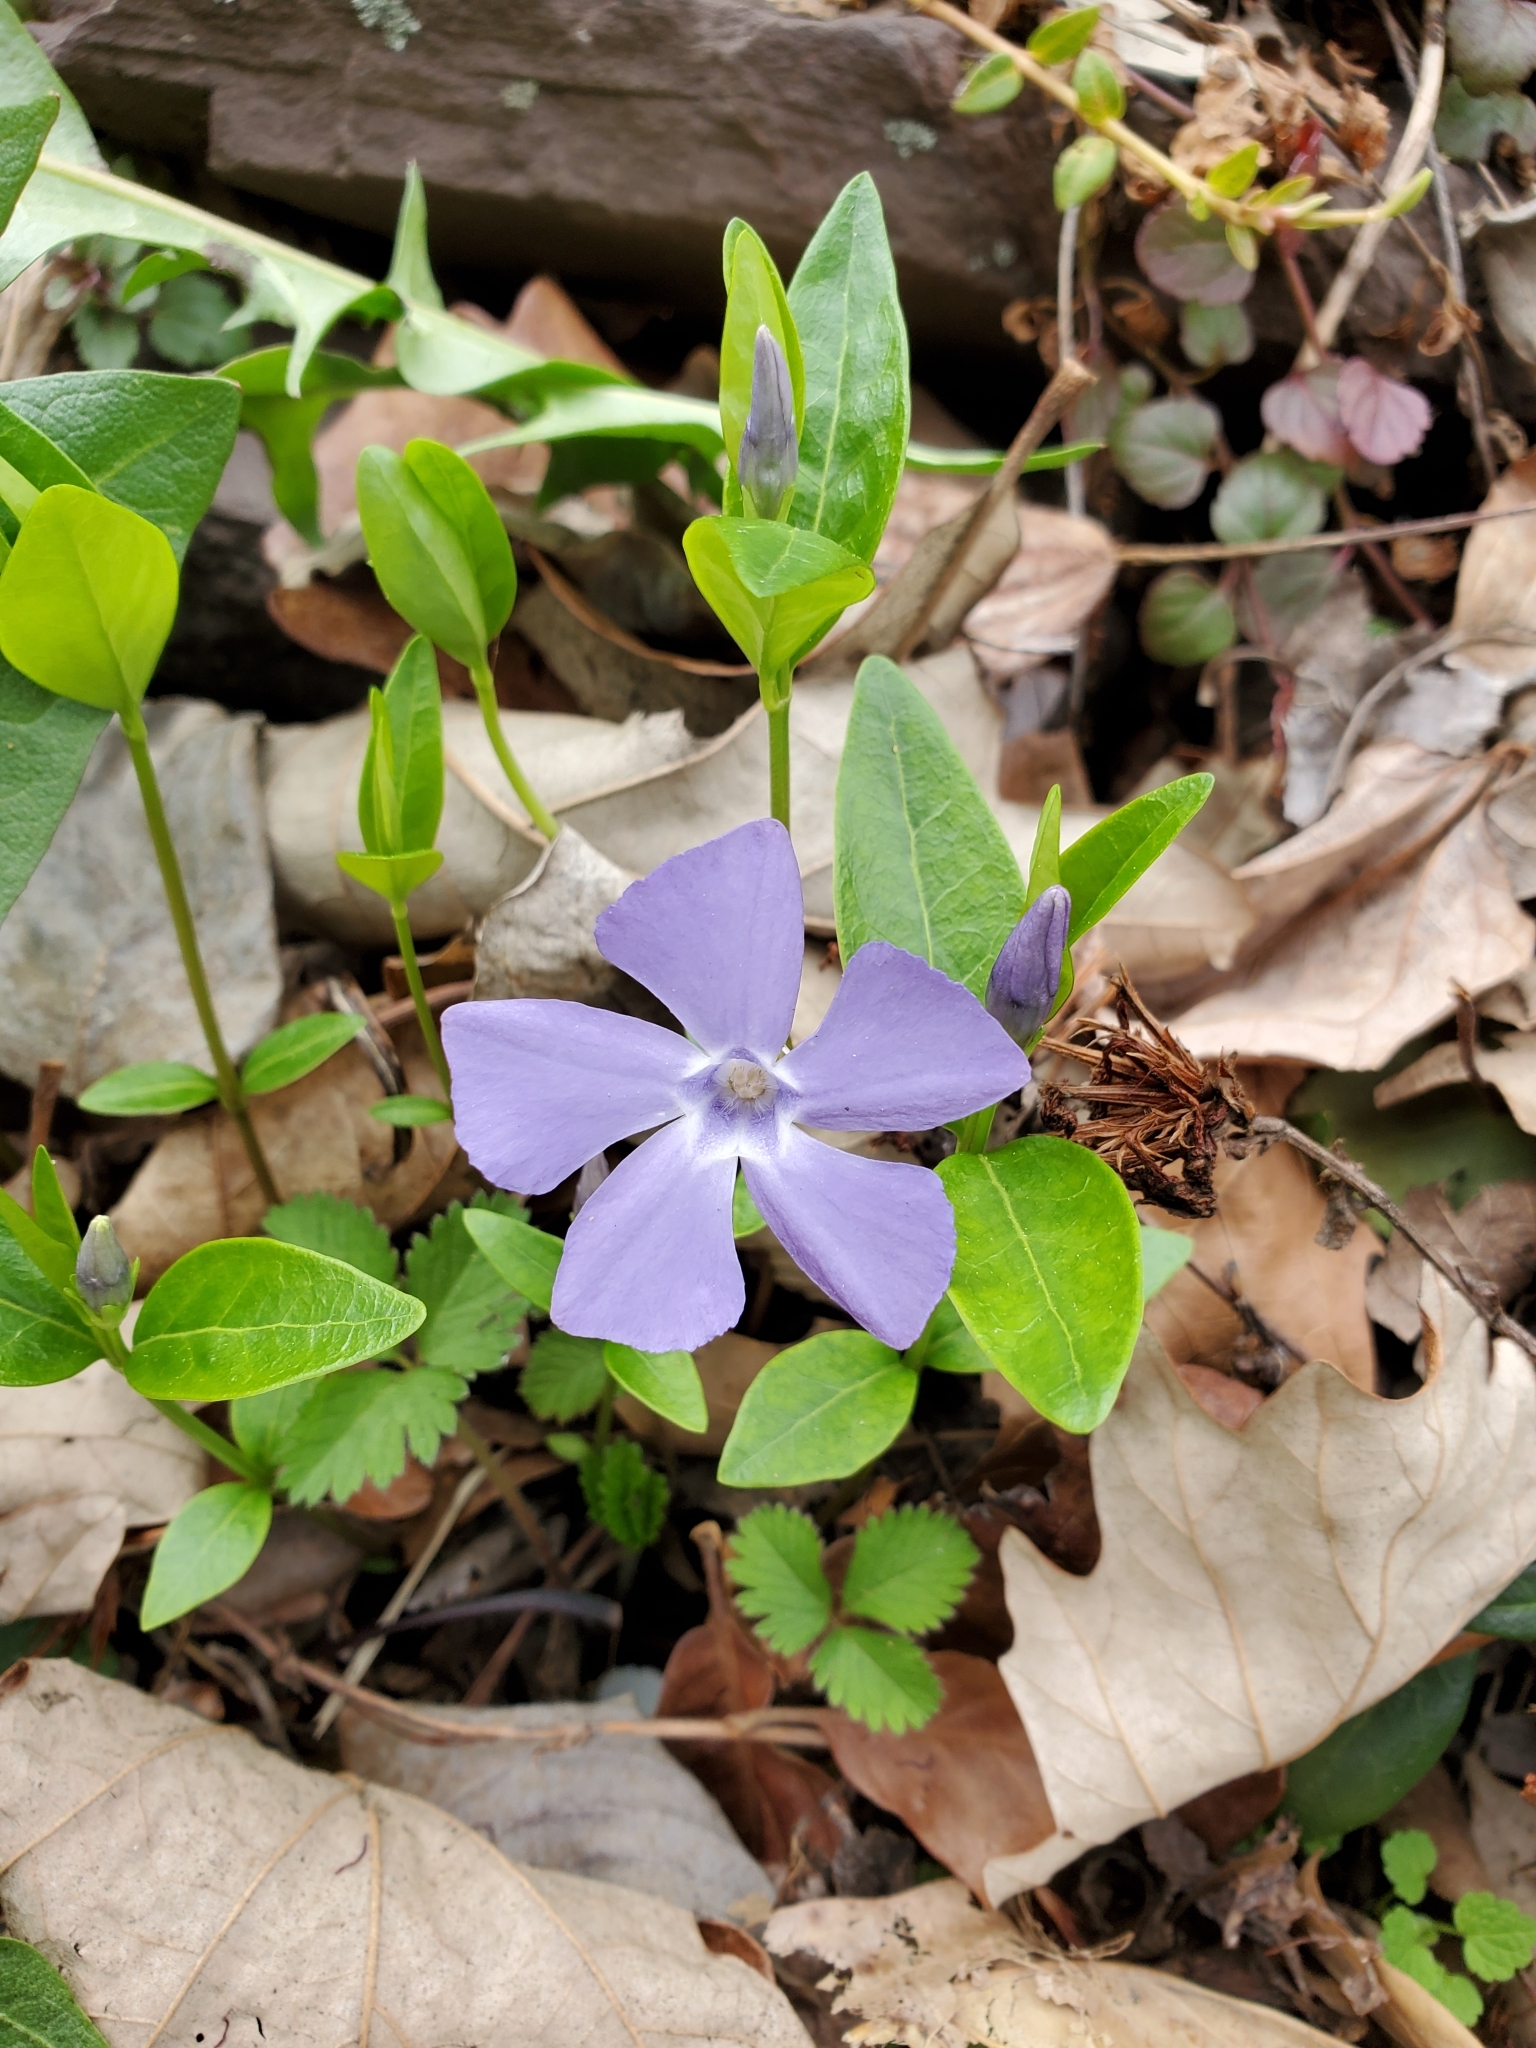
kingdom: Plantae
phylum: Tracheophyta
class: Magnoliopsida
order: Gentianales
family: Apocynaceae
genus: Vinca
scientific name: Vinca minor
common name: Lesser periwinkle
